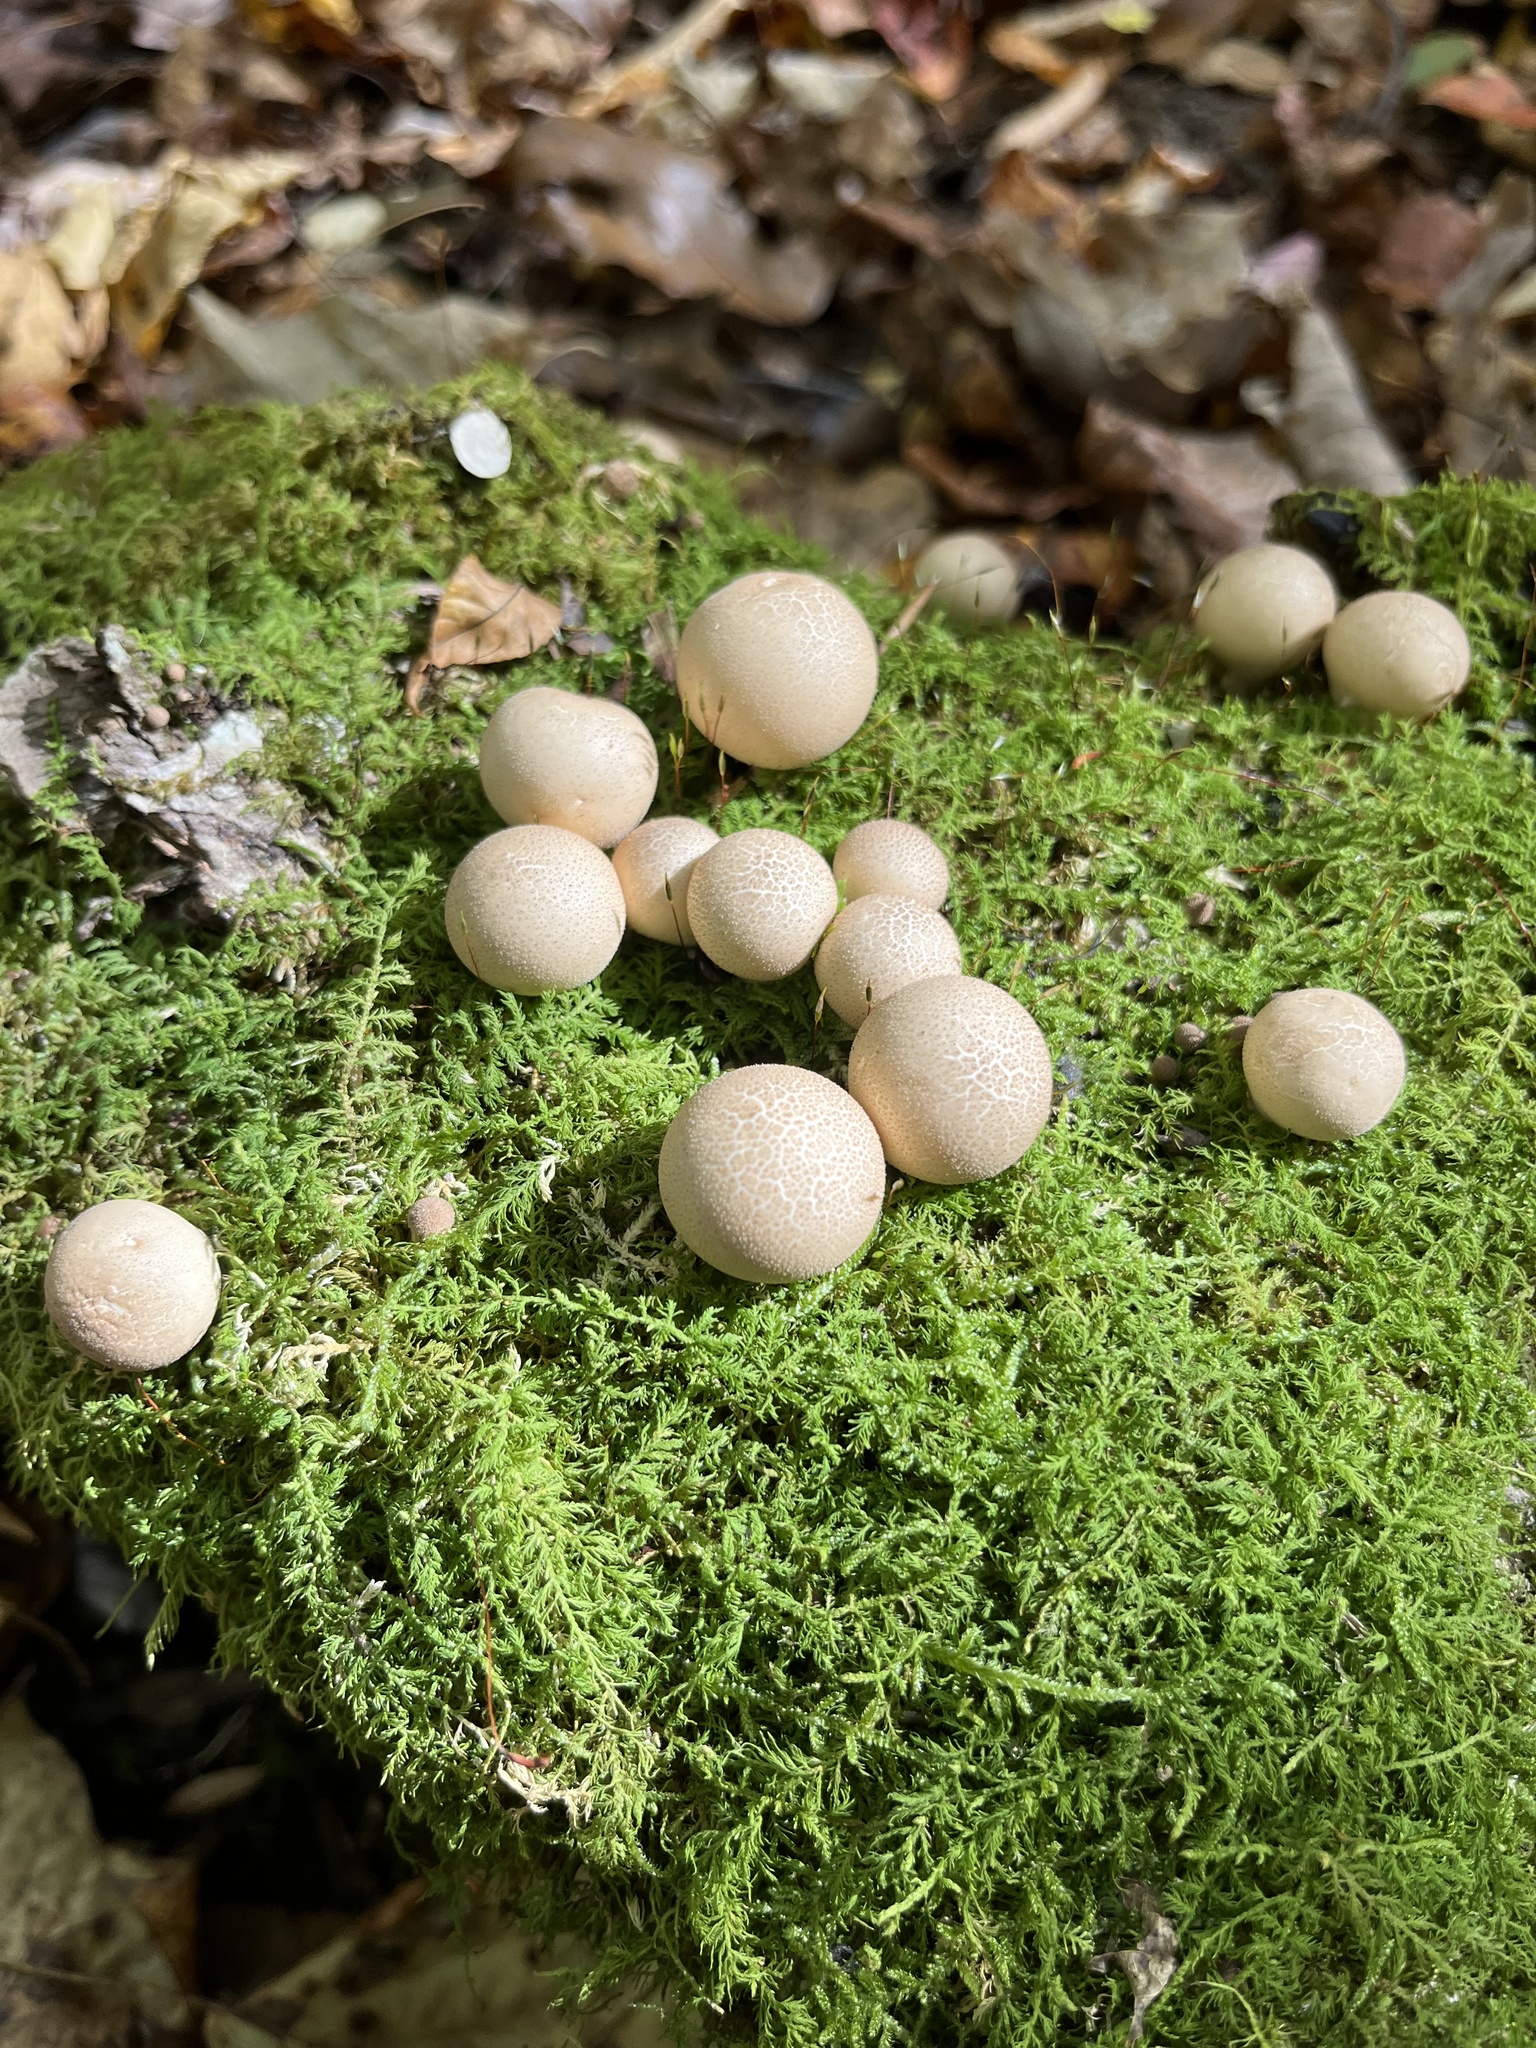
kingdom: Fungi
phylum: Basidiomycota
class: Agaricomycetes
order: Agaricales
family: Lycoperdaceae
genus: Apioperdon
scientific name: Apioperdon pyriforme
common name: Pear-shaped puffball
